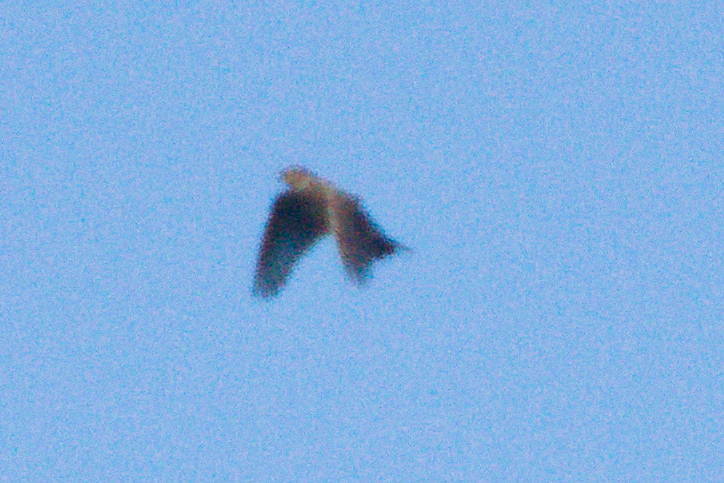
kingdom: Animalia
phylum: Chordata
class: Aves
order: Passeriformes
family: Alaudidae
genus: Alauda
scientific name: Alauda arvensis
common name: Eurasian skylark
